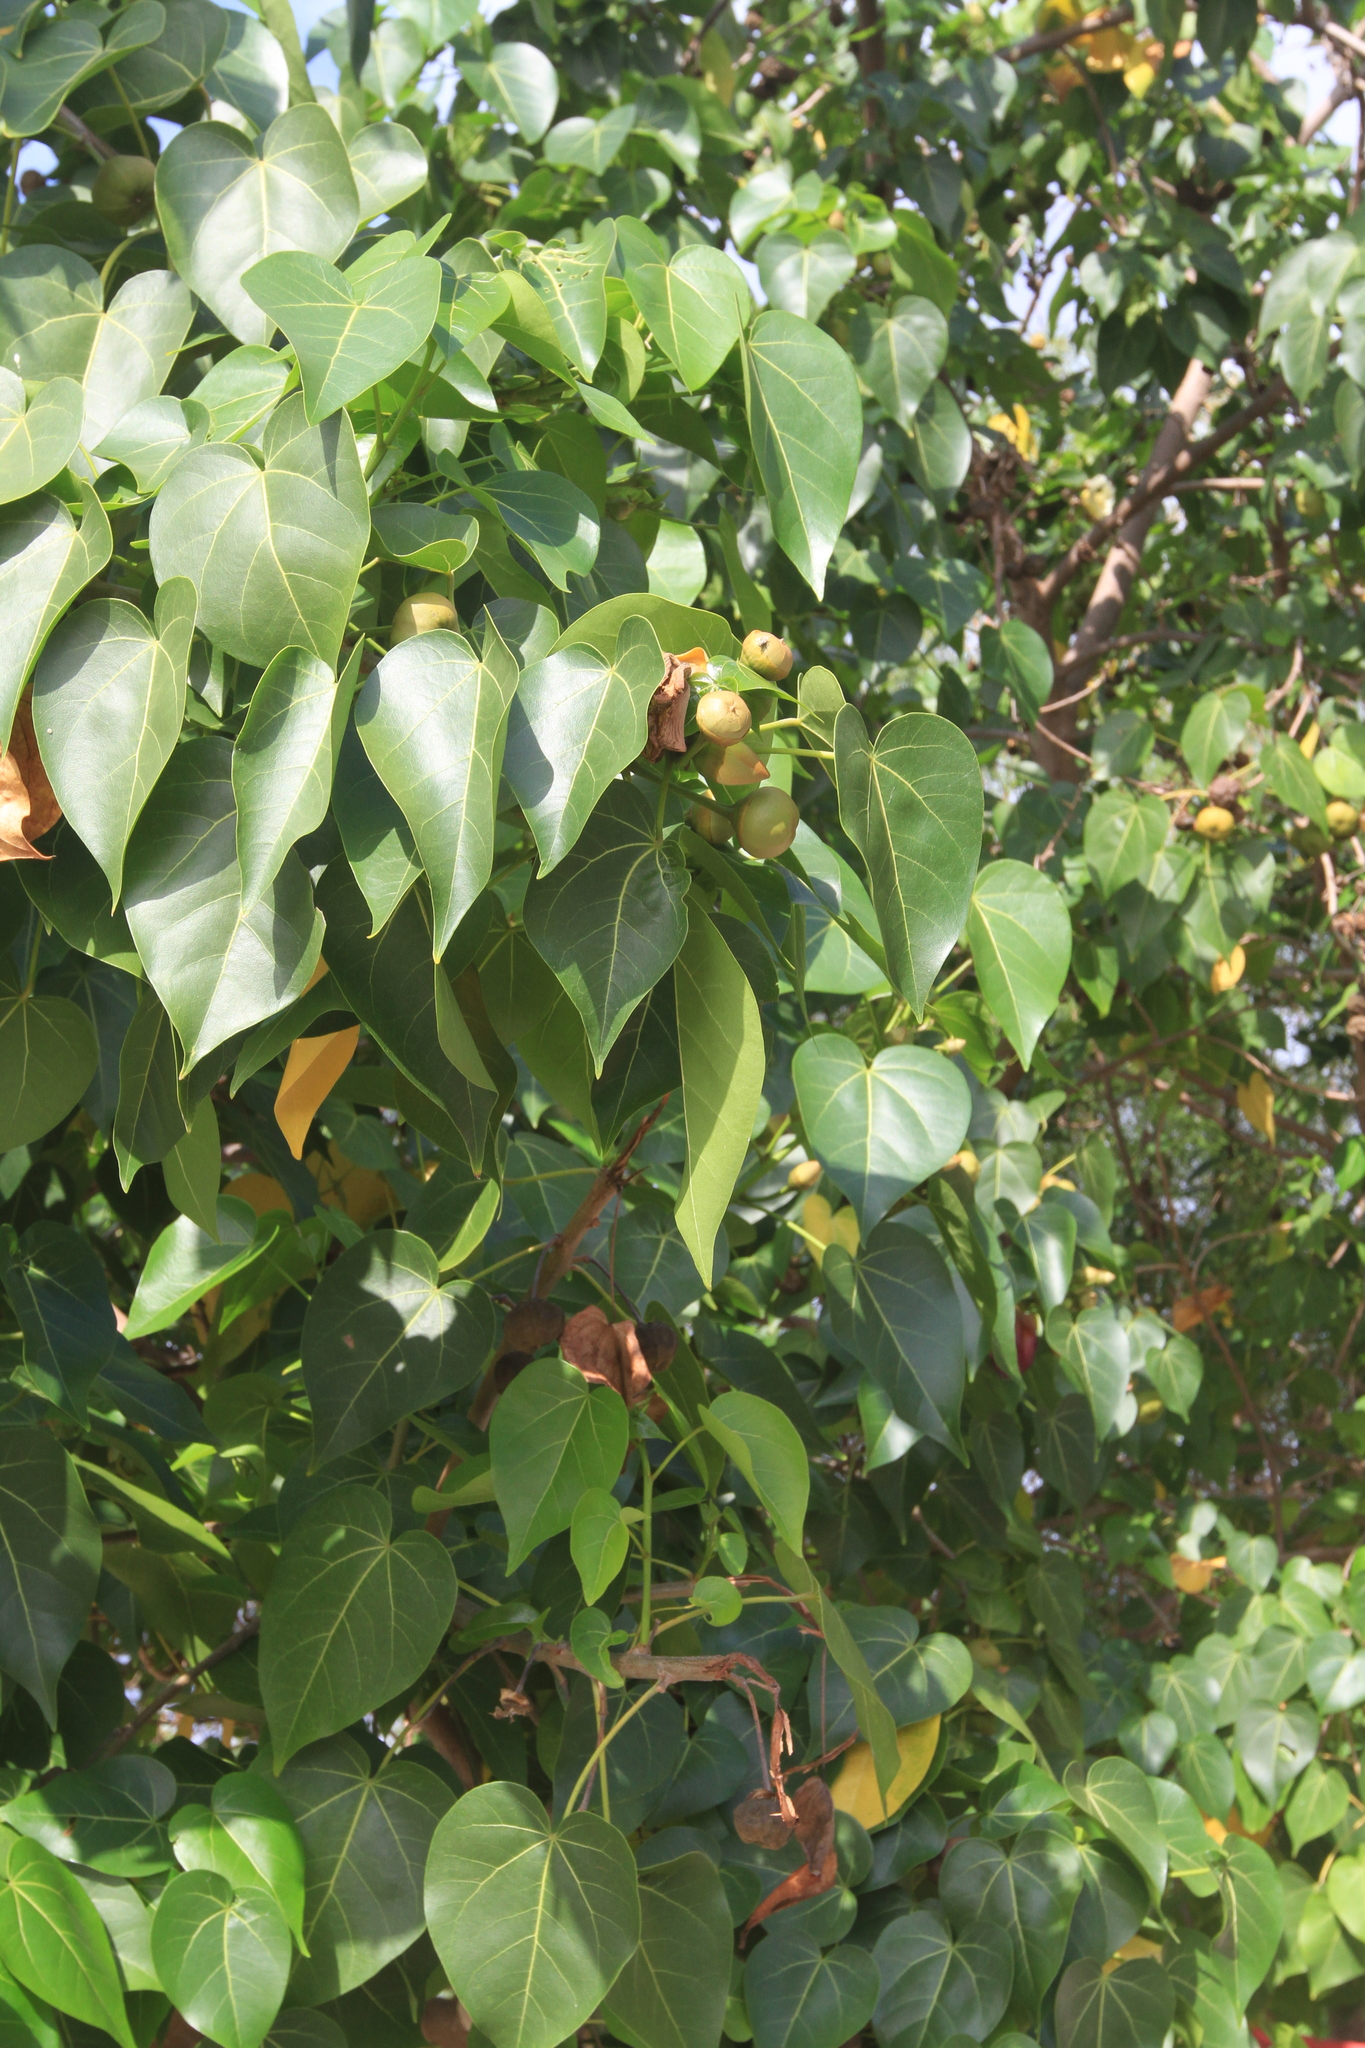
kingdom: Plantae
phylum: Tracheophyta
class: Magnoliopsida
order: Malvales
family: Malvaceae
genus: Thespesia
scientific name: Thespesia populnea
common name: Seaside mahoe
